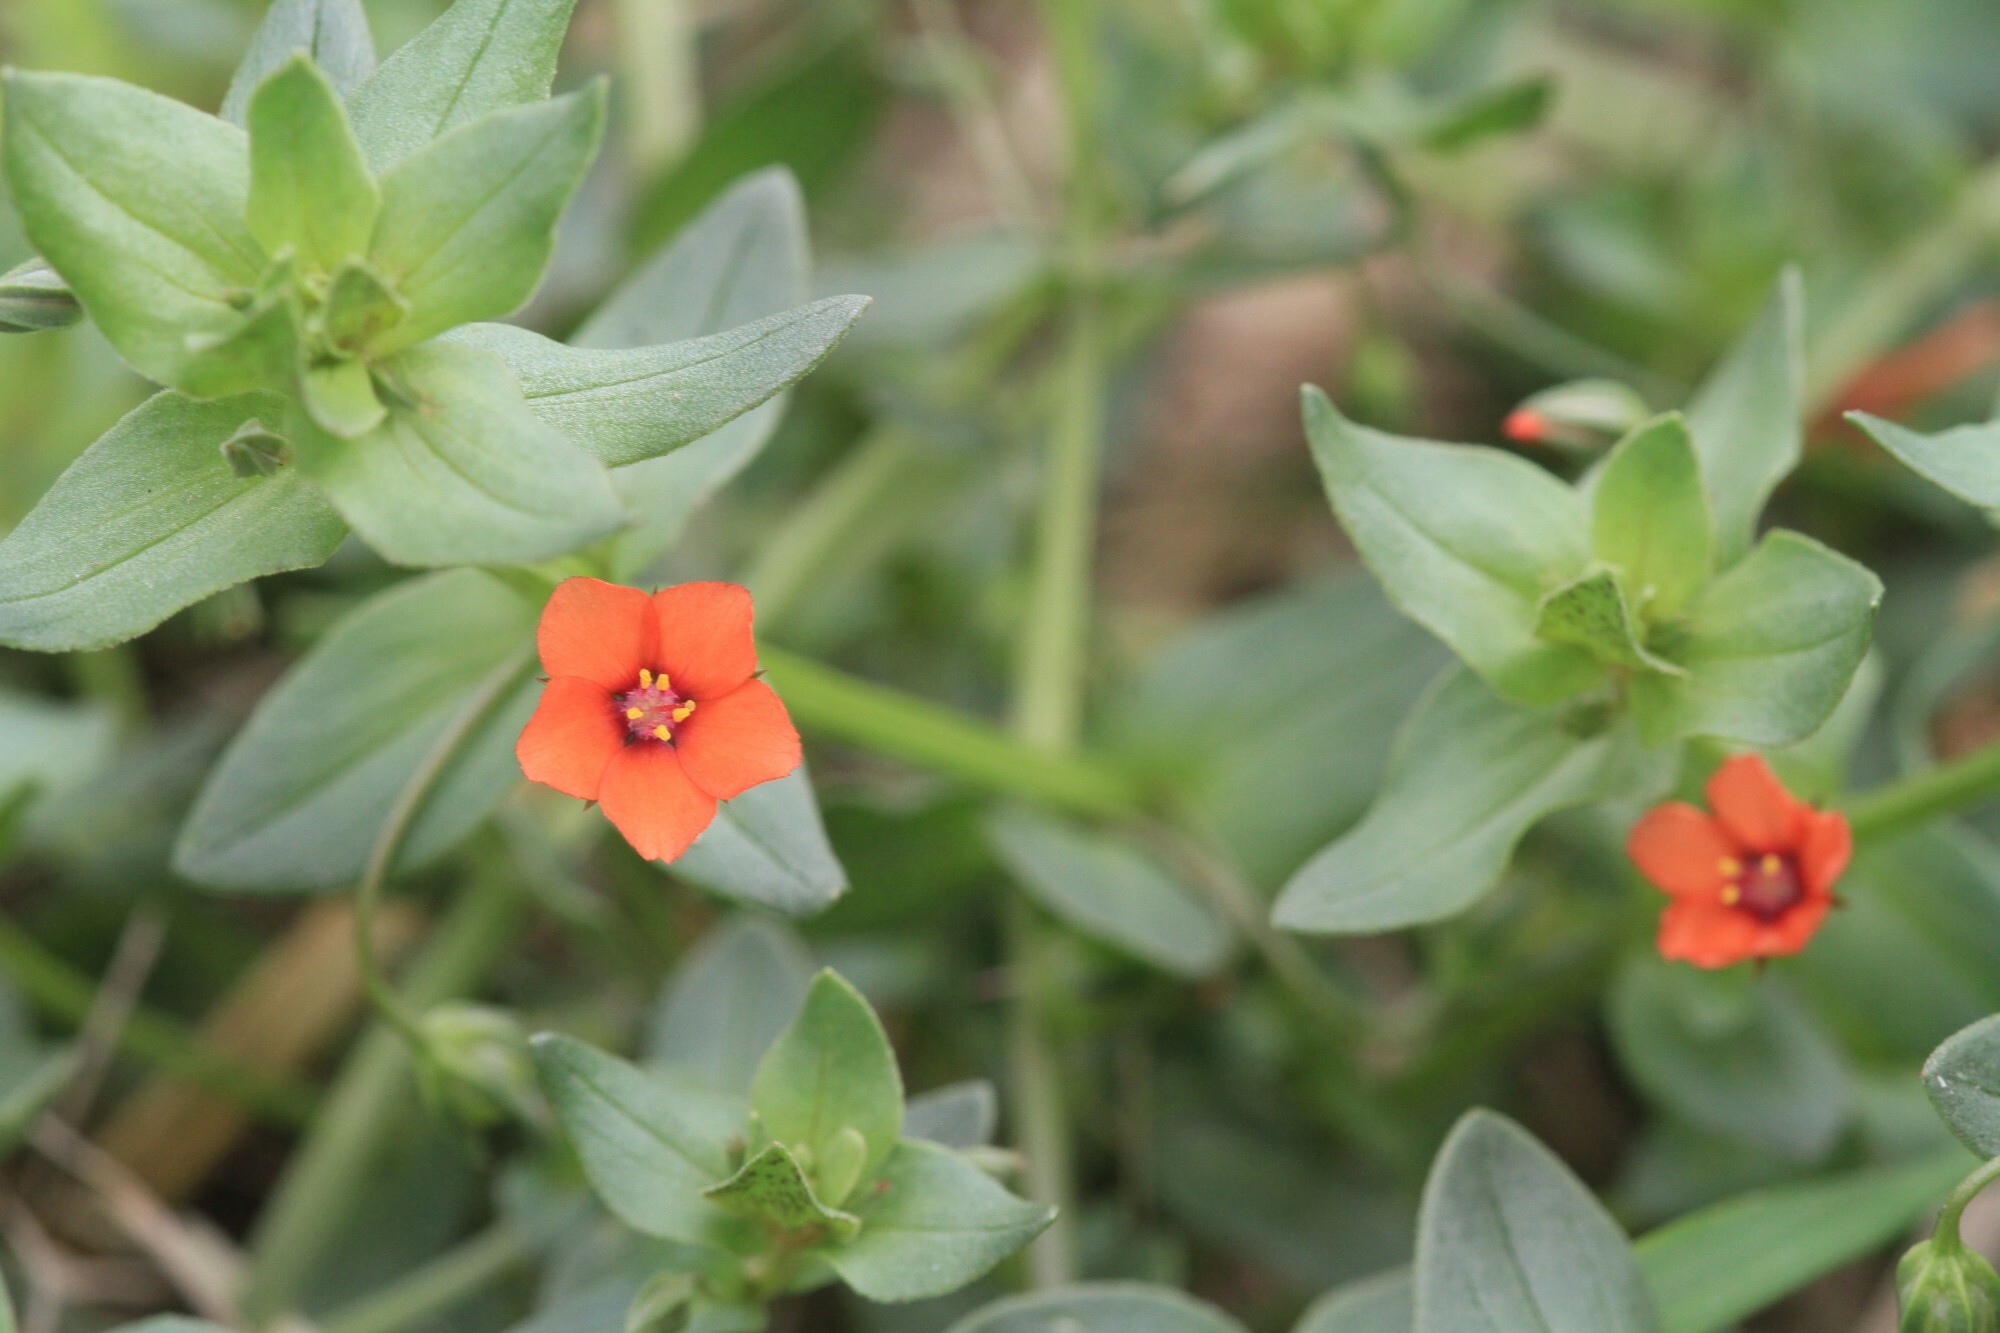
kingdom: Plantae
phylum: Tracheophyta
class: Magnoliopsida
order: Ericales
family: Primulaceae
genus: Lysimachia
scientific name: Lysimachia arvensis
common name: Scarlet pimpernel
